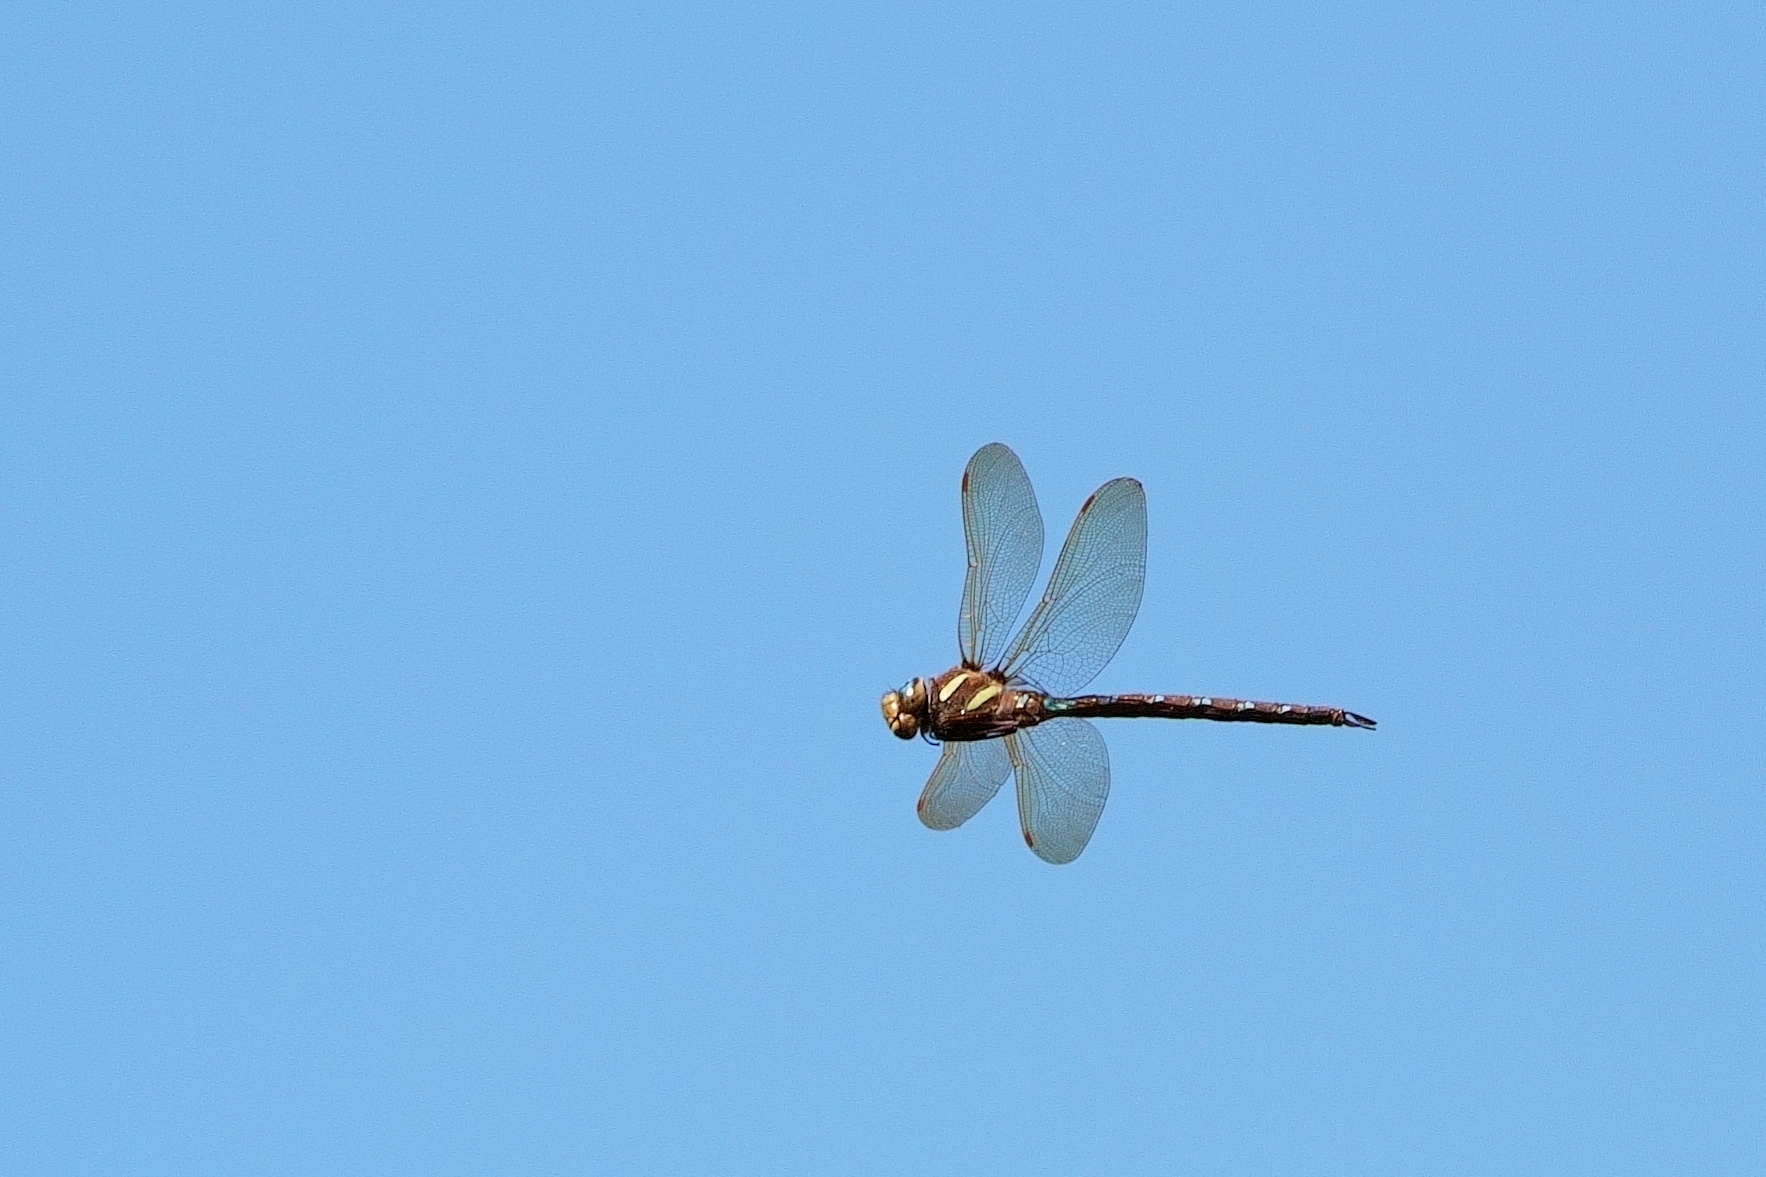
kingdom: Animalia
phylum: Arthropoda
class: Insecta
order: Odonata
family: Aeshnidae
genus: Aeshna
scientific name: Aeshna grandis
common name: Brown hawker
